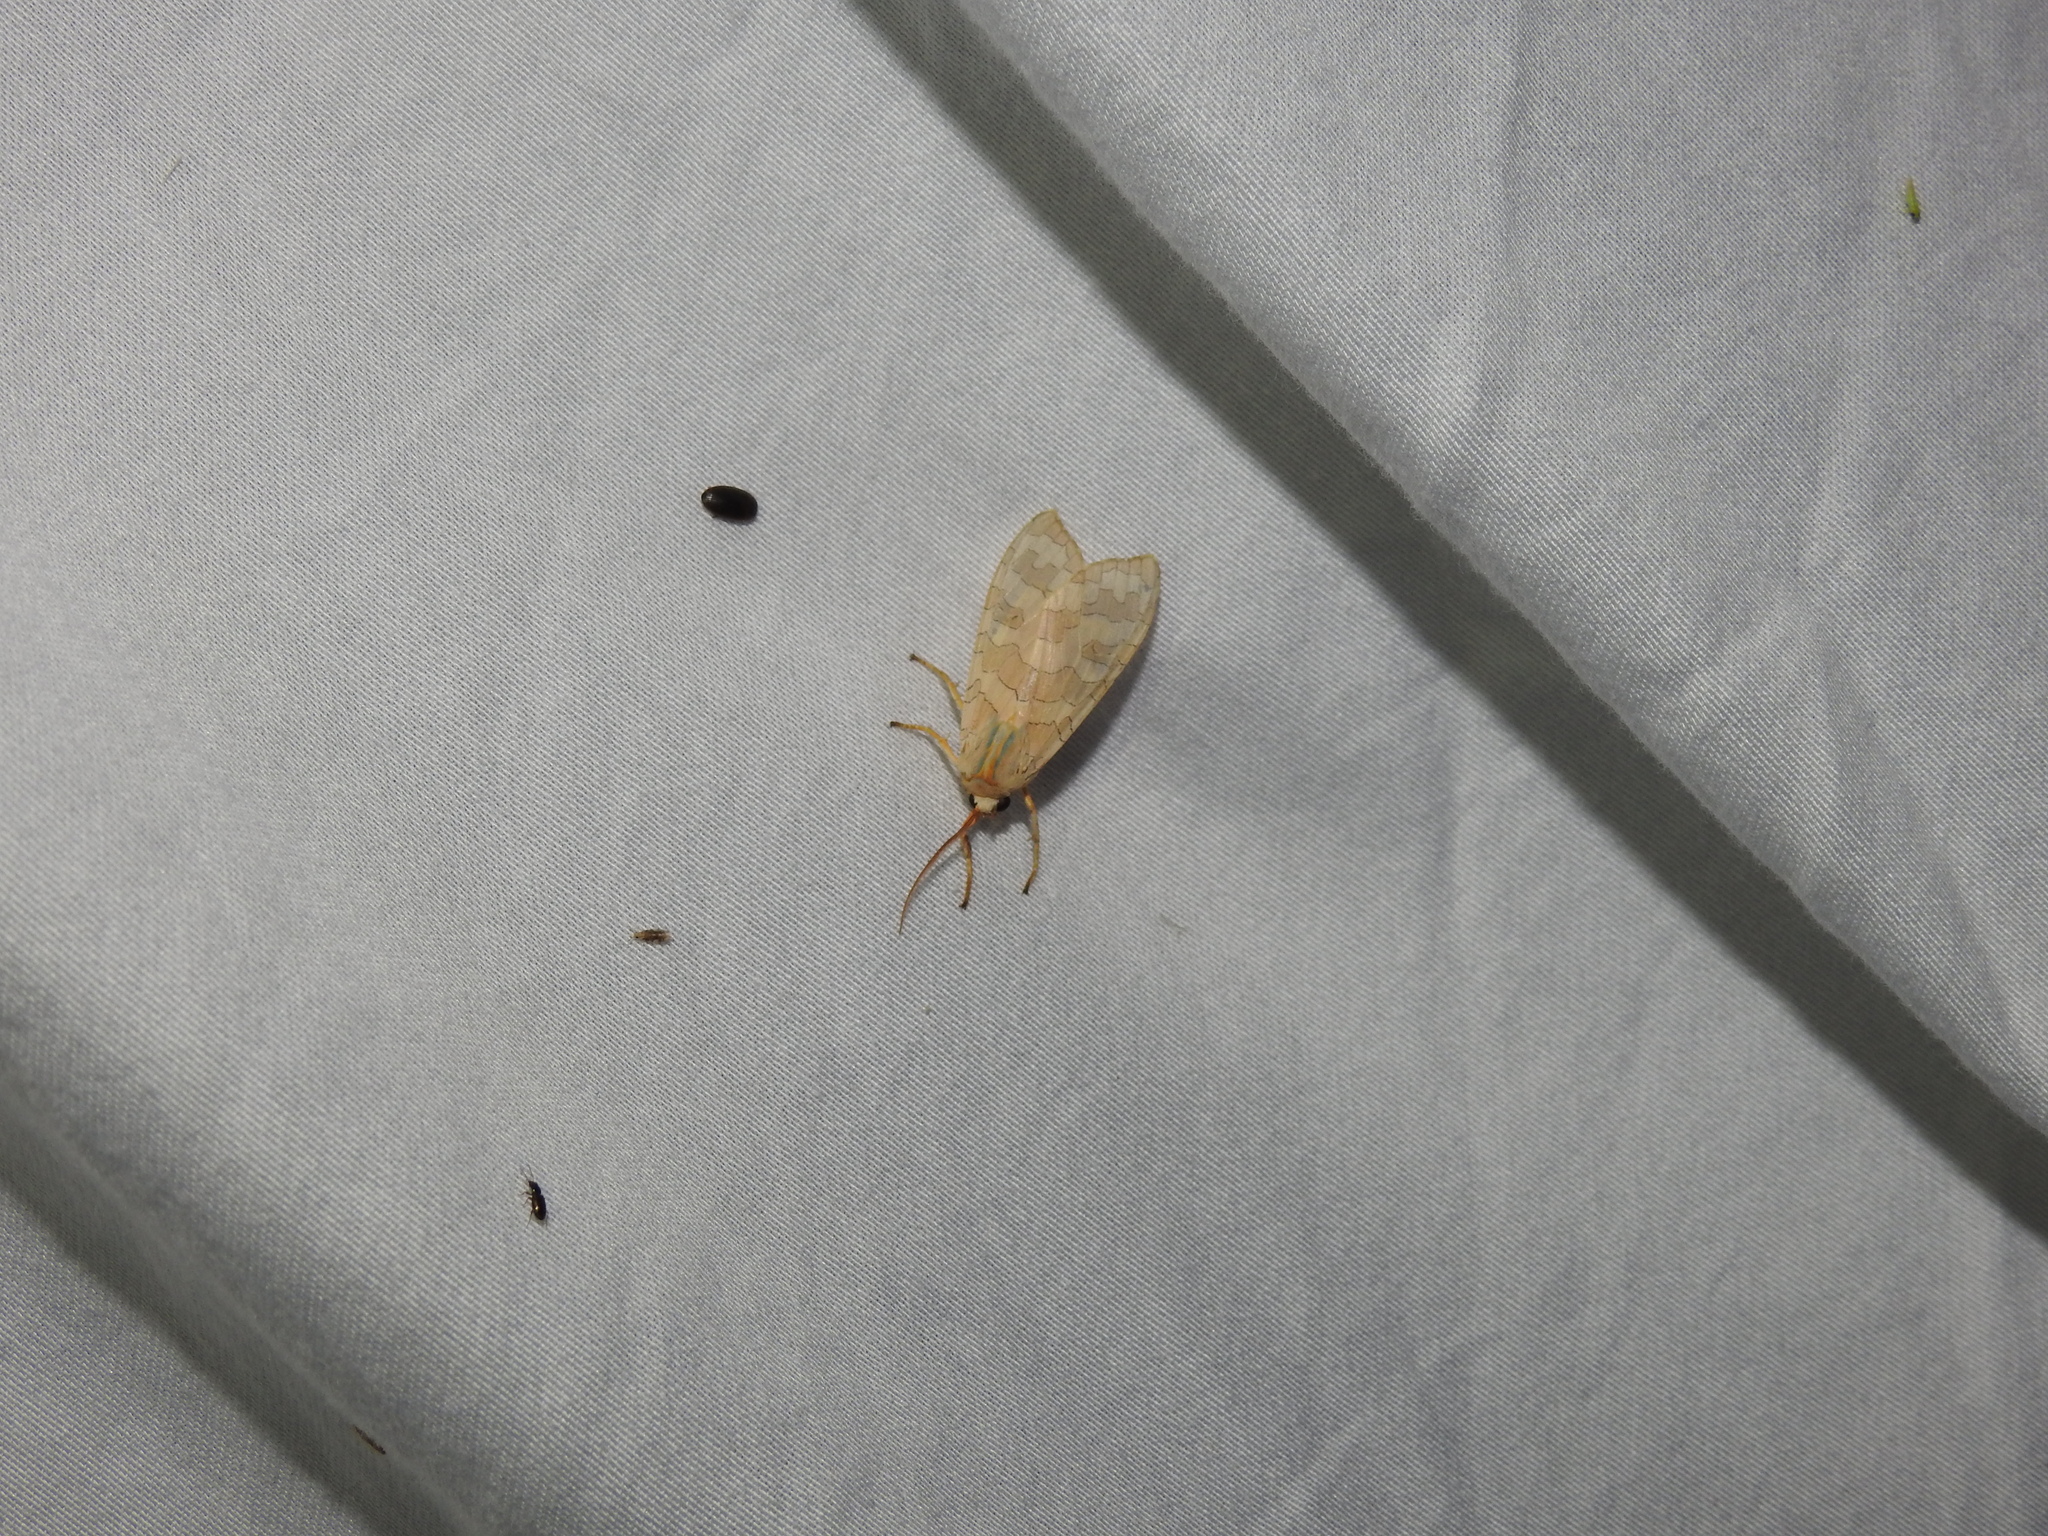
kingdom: Animalia
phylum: Arthropoda
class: Insecta
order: Lepidoptera
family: Erebidae
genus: Halysidota
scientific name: Halysidota
